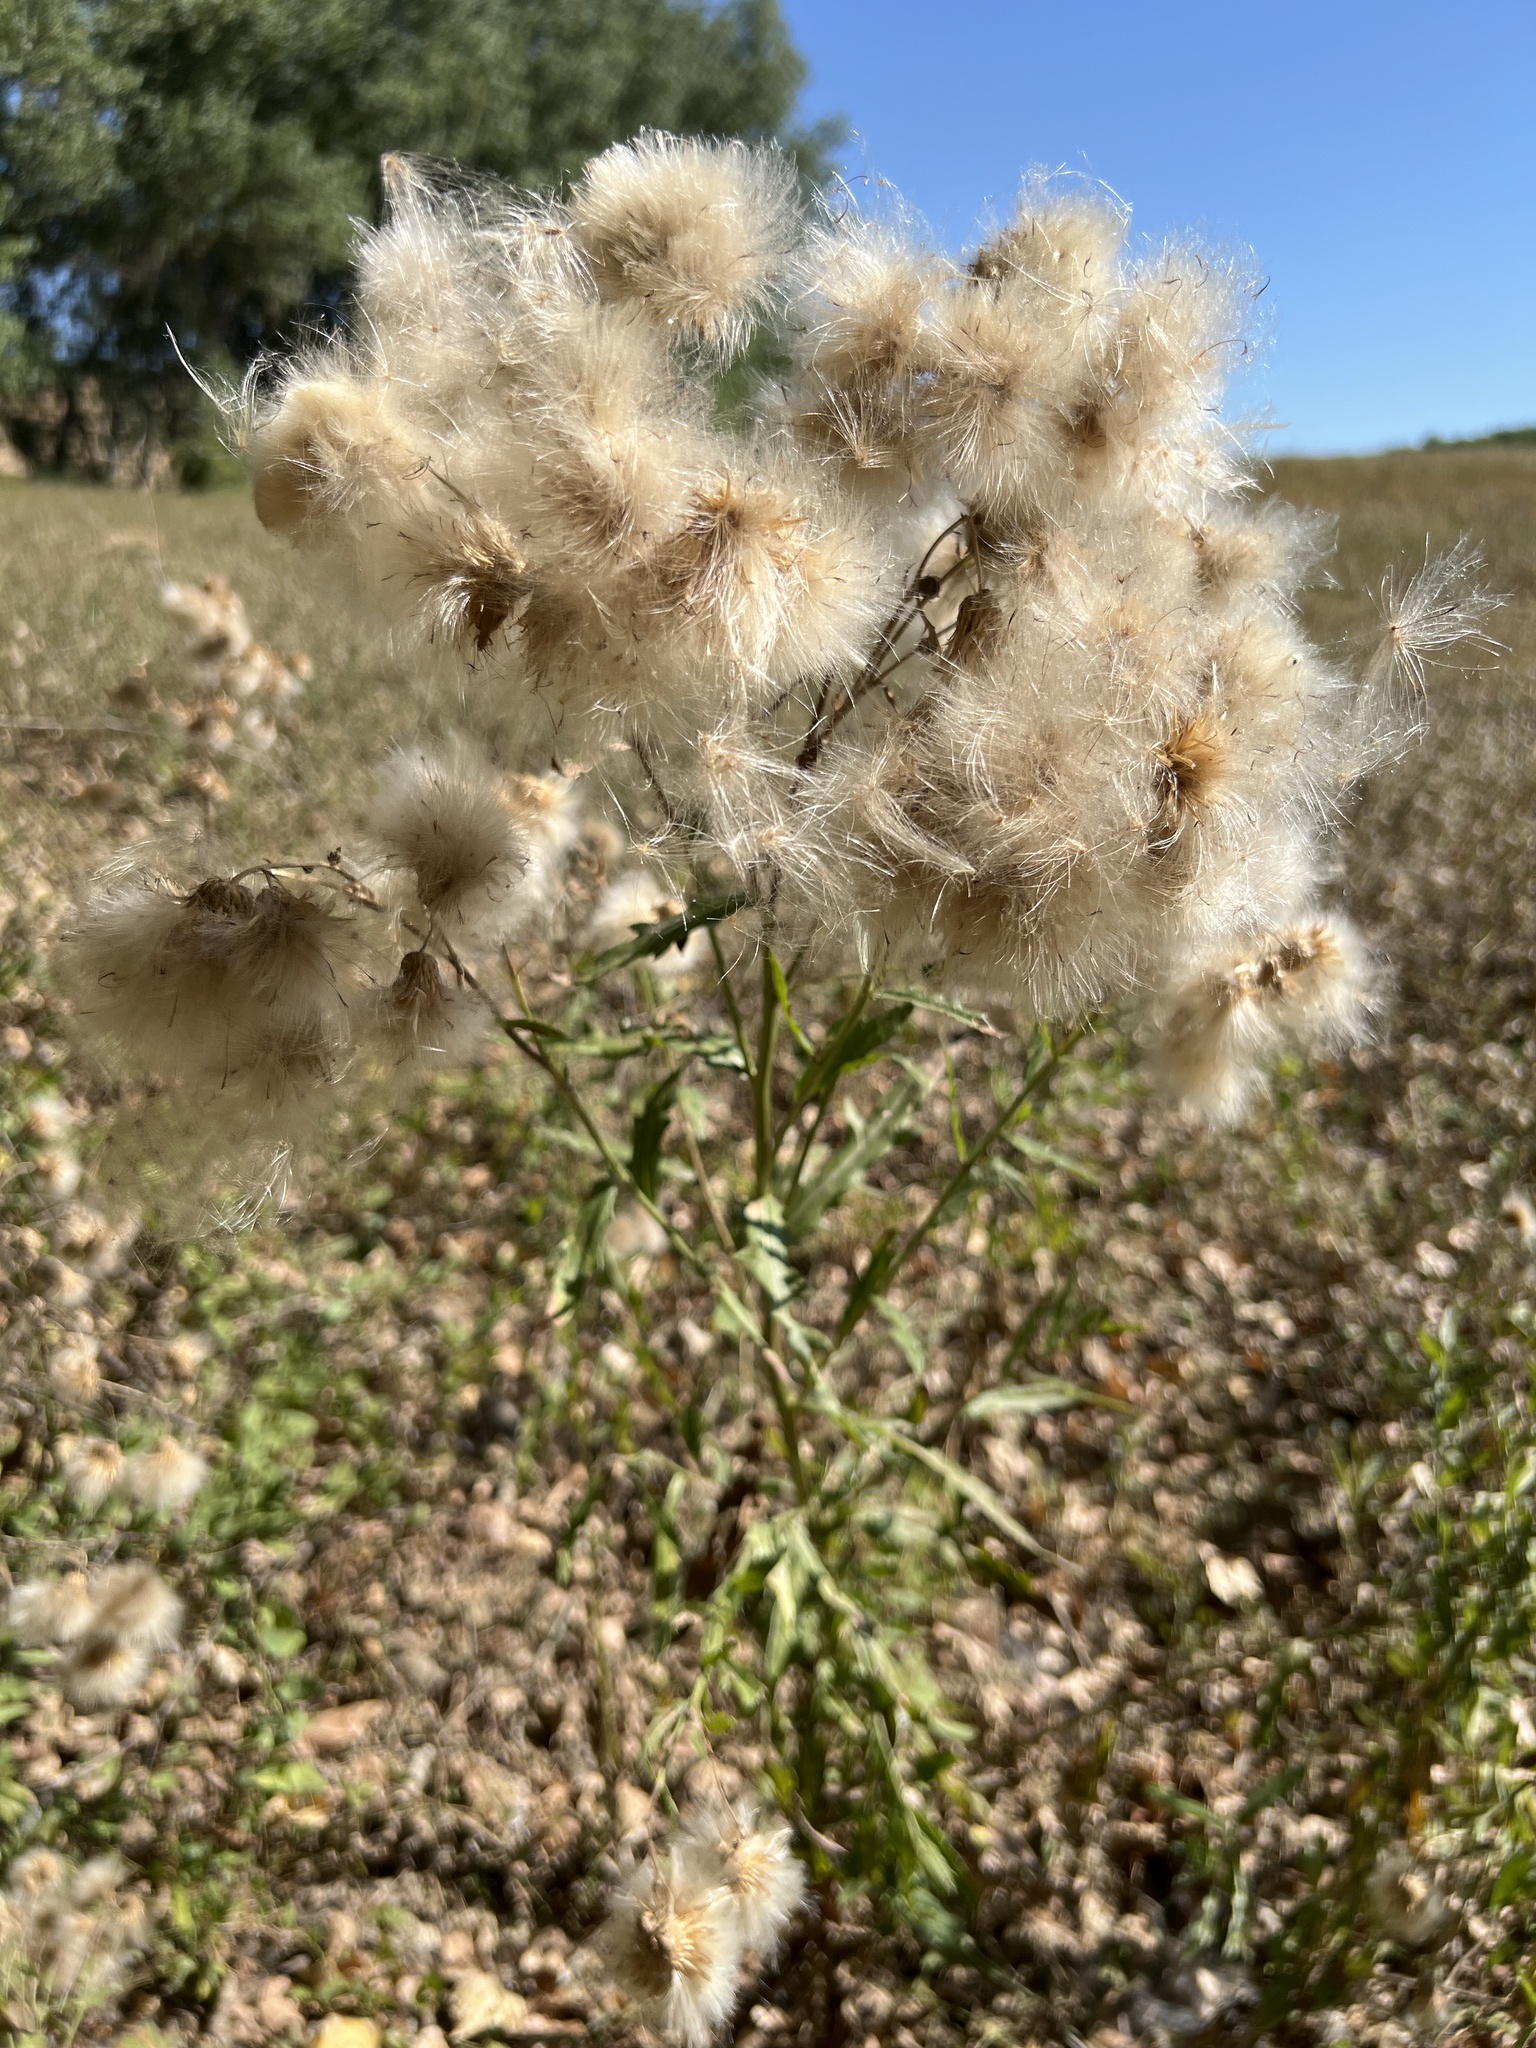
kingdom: Plantae
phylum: Tracheophyta
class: Magnoliopsida
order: Asterales
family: Asteraceae
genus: Cirsium
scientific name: Cirsium arvense
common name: Creeping thistle
